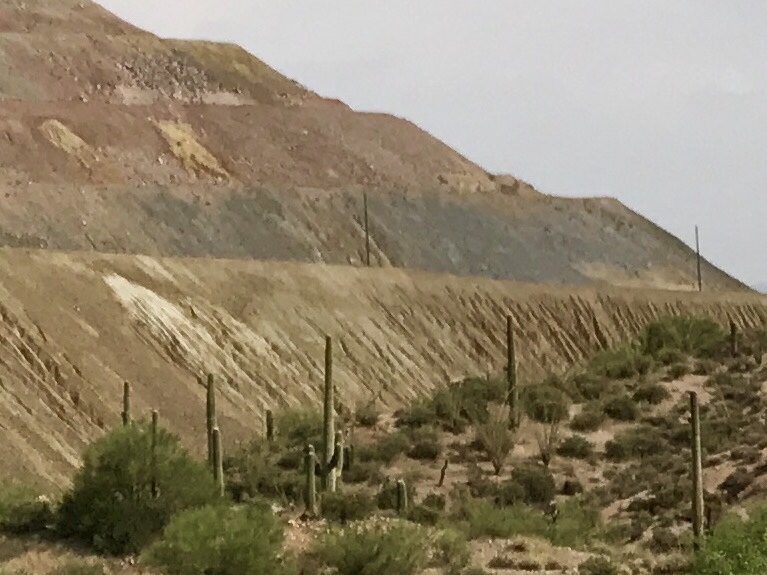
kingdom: Plantae
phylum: Tracheophyta
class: Magnoliopsida
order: Caryophyllales
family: Cactaceae
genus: Carnegiea
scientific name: Carnegiea gigantea
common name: Saguaro
